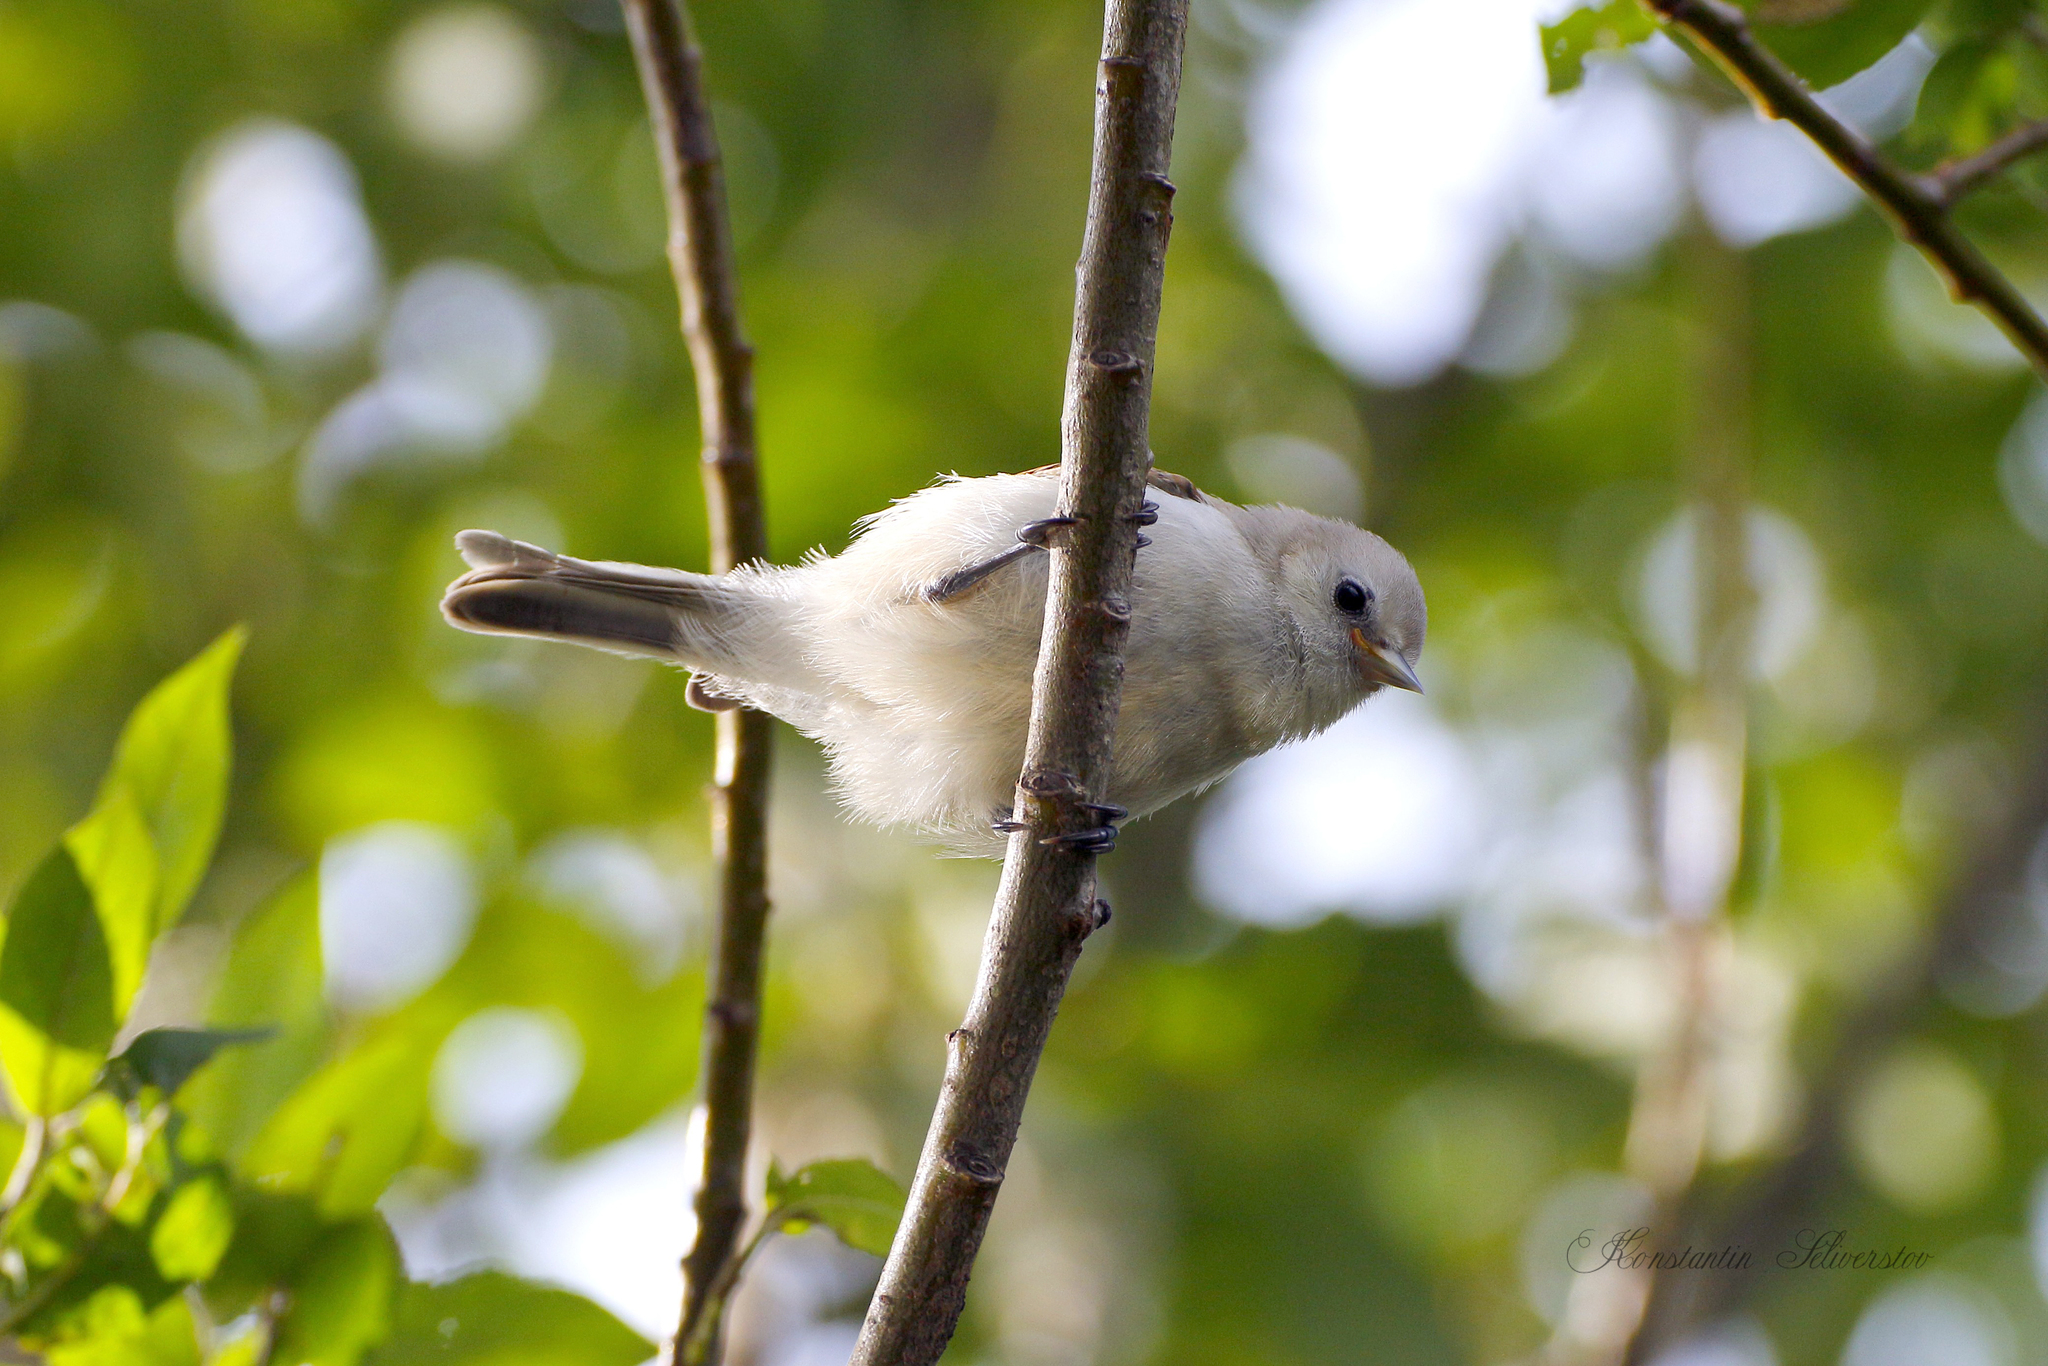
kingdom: Animalia
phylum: Chordata
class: Aves
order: Passeriformes
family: Remizidae
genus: Remiz
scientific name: Remiz pendulinus
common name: Eurasian penduline tit
